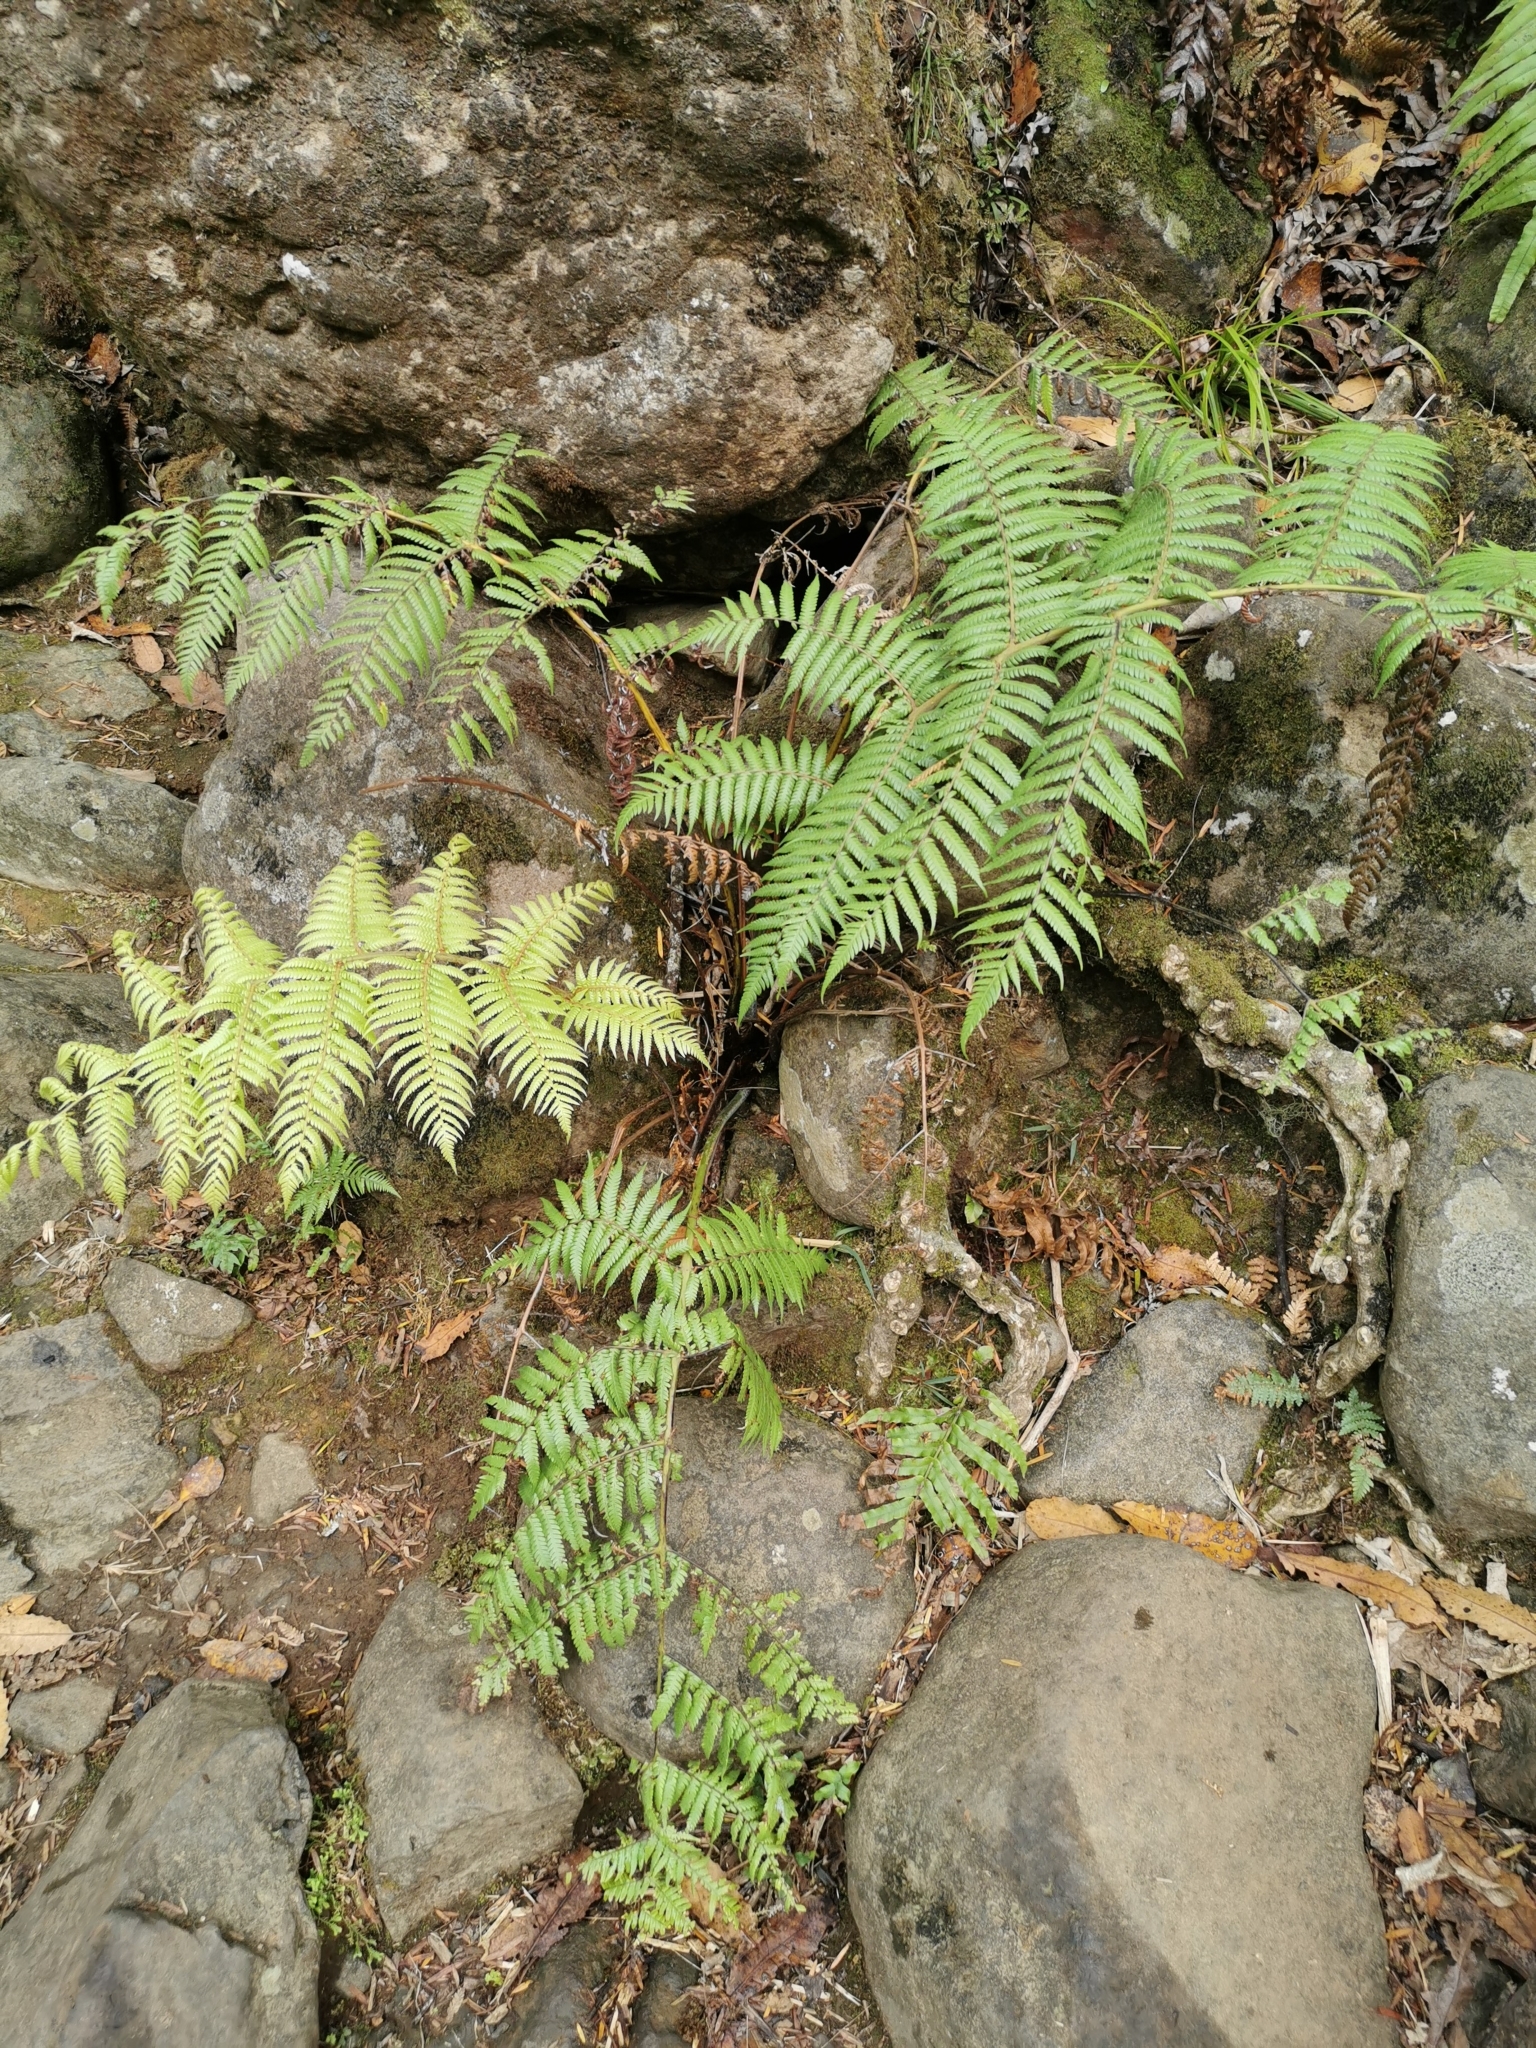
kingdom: Plantae
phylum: Tracheophyta
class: Polypodiopsida
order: Cyatheales
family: Cyatheaceae
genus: Alsophila
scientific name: Alsophila dealbata
